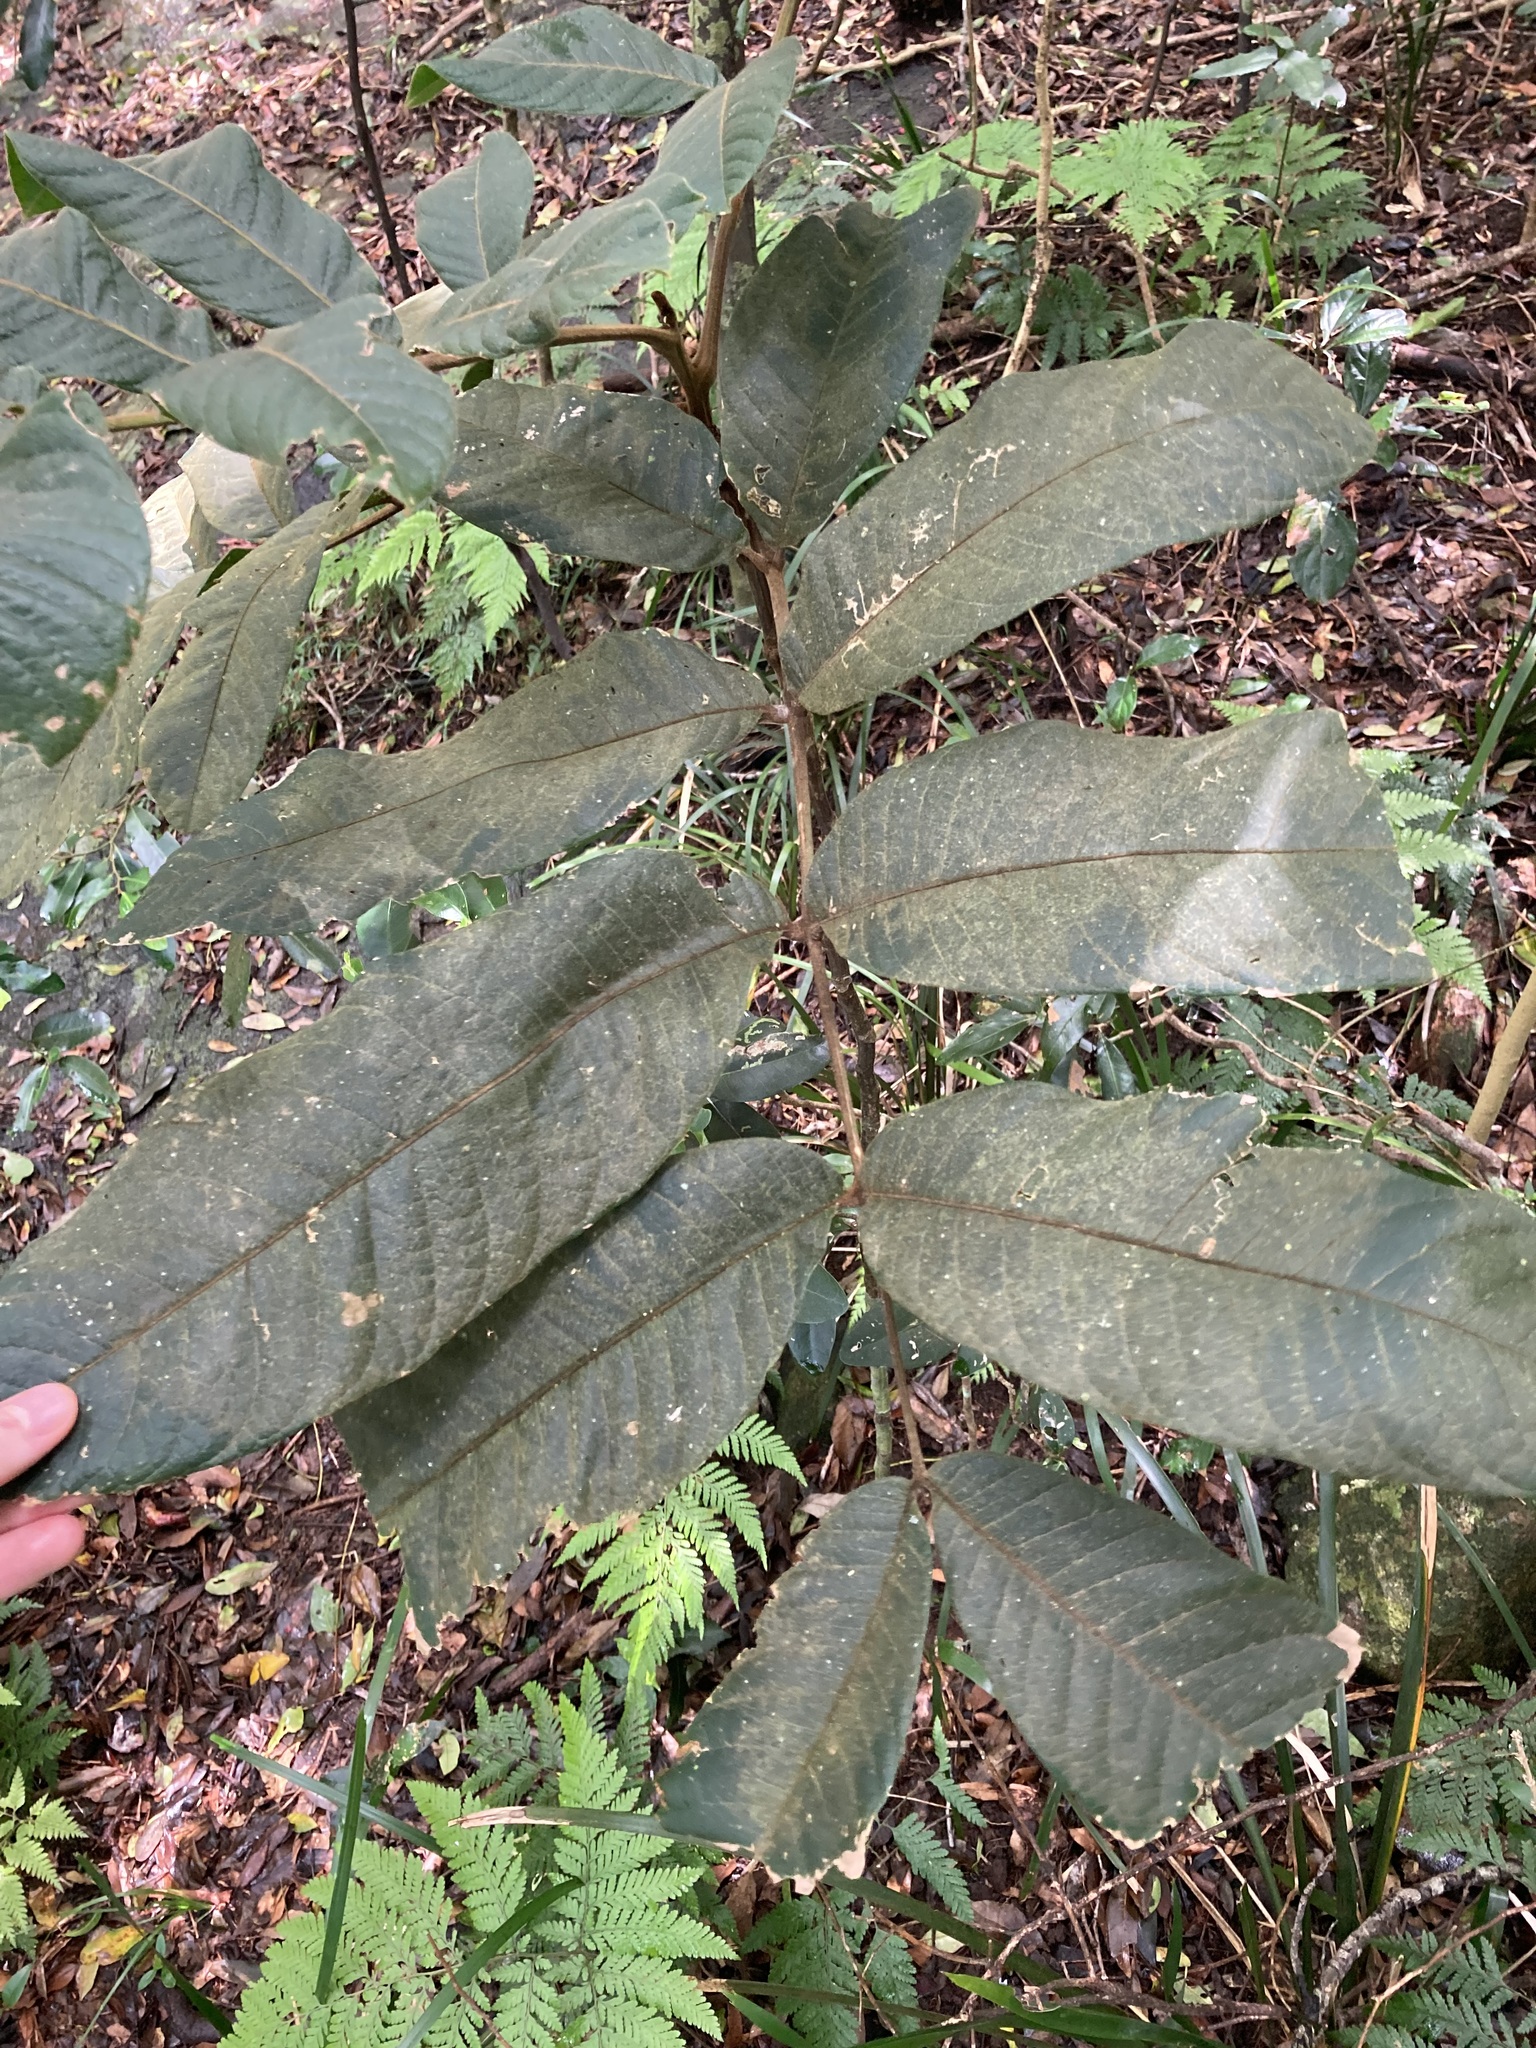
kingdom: Plantae
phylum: Tracheophyta
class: Magnoliopsida
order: Sapindales
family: Sapindaceae
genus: Diploglottis
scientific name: Diploglottis australis
